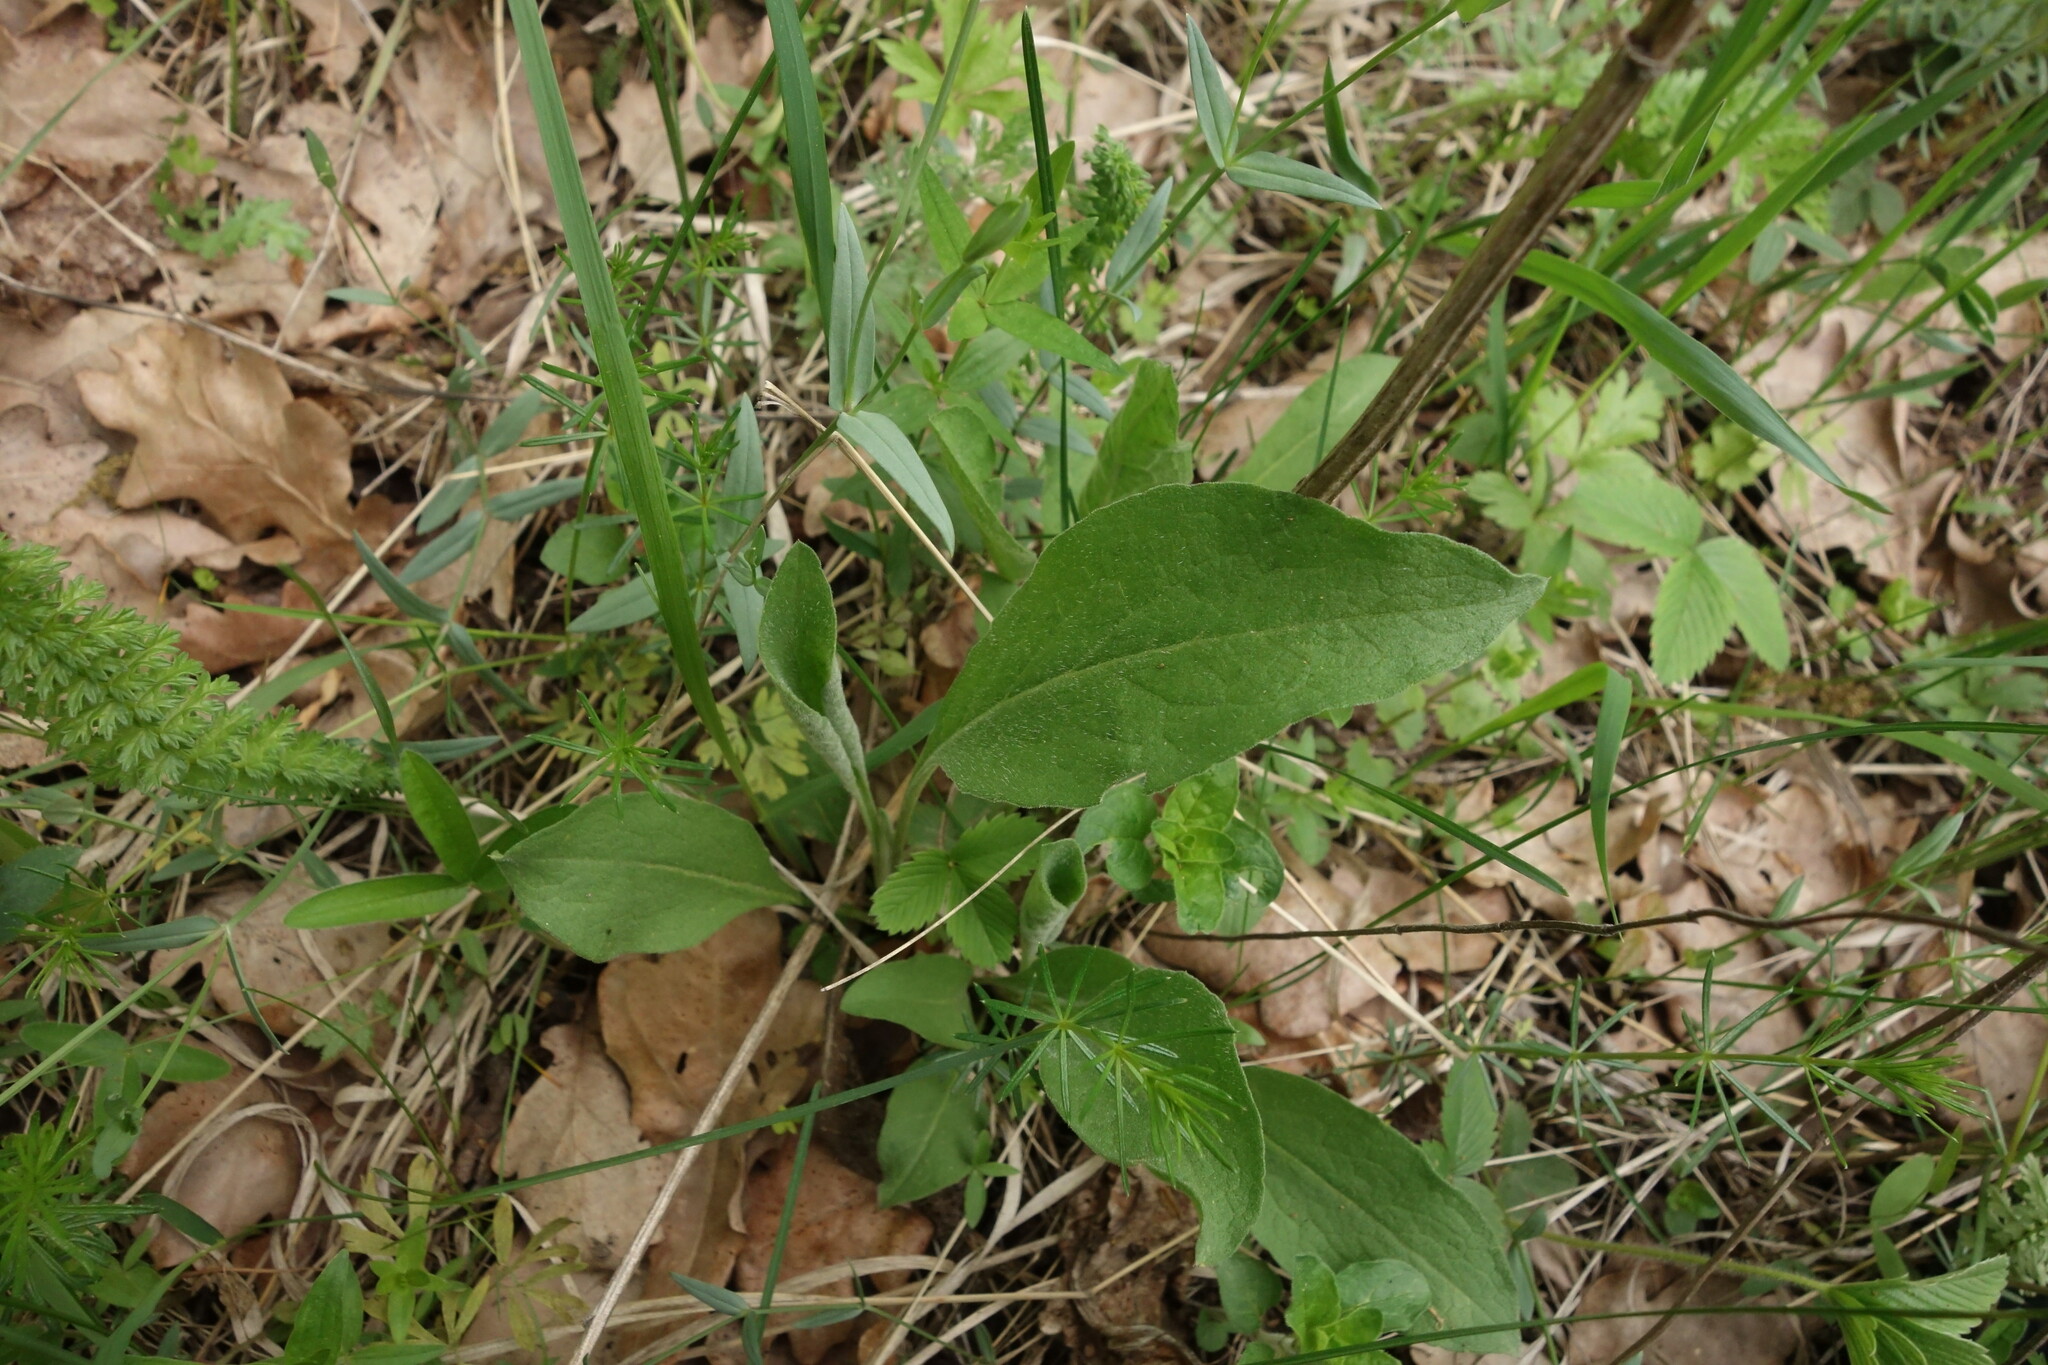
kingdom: Plantae
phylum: Tracheophyta
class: Magnoliopsida
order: Asterales
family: Asteraceae
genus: Centaurea
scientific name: Centaurea trichocephala
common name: Feather-head knapweed
